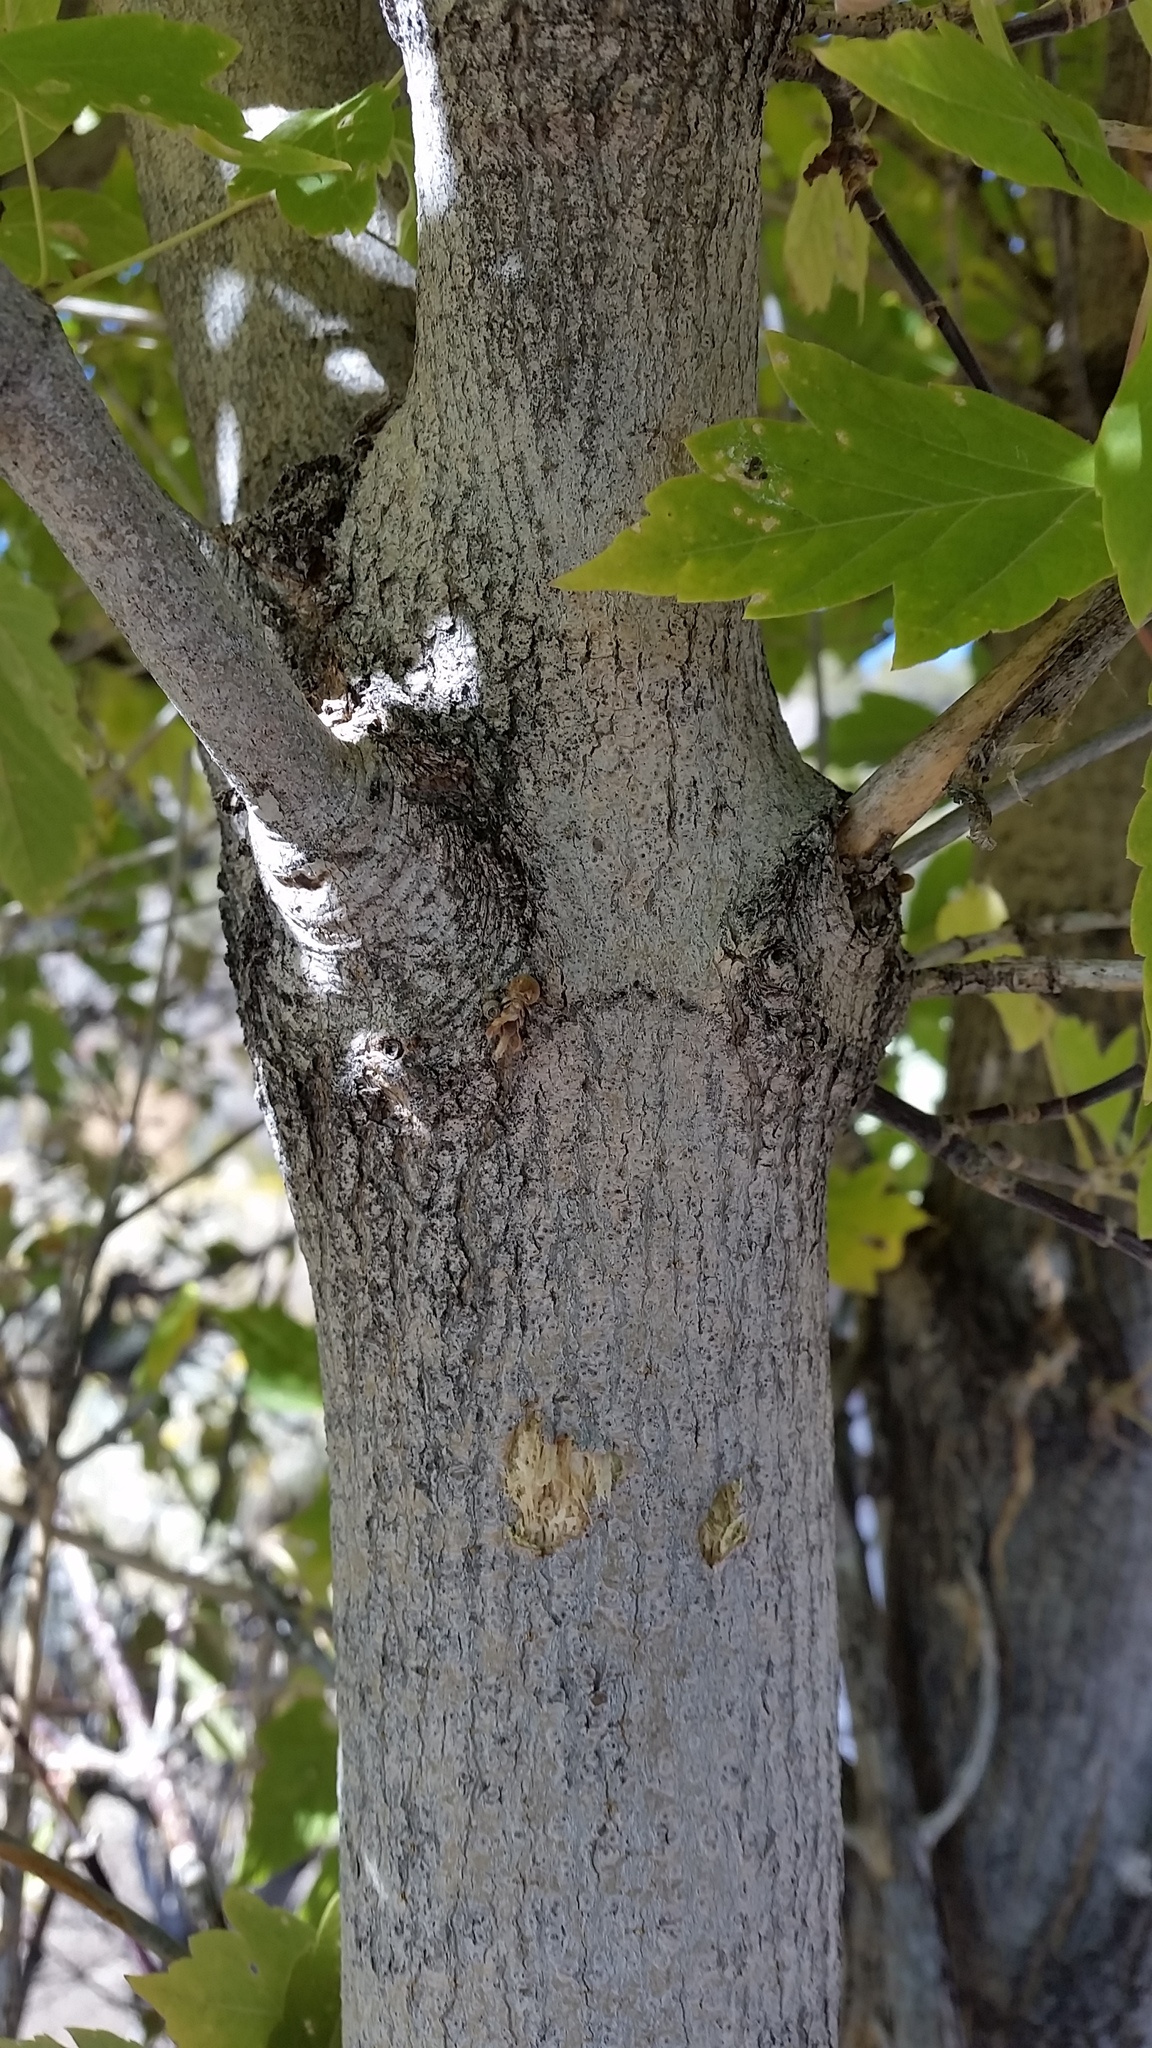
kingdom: Plantae
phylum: Tracheophyta
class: Magnoliopsida
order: Sapindales
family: Sapindaceae
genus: Acer
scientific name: Acer negundo
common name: Ashleaf maple
